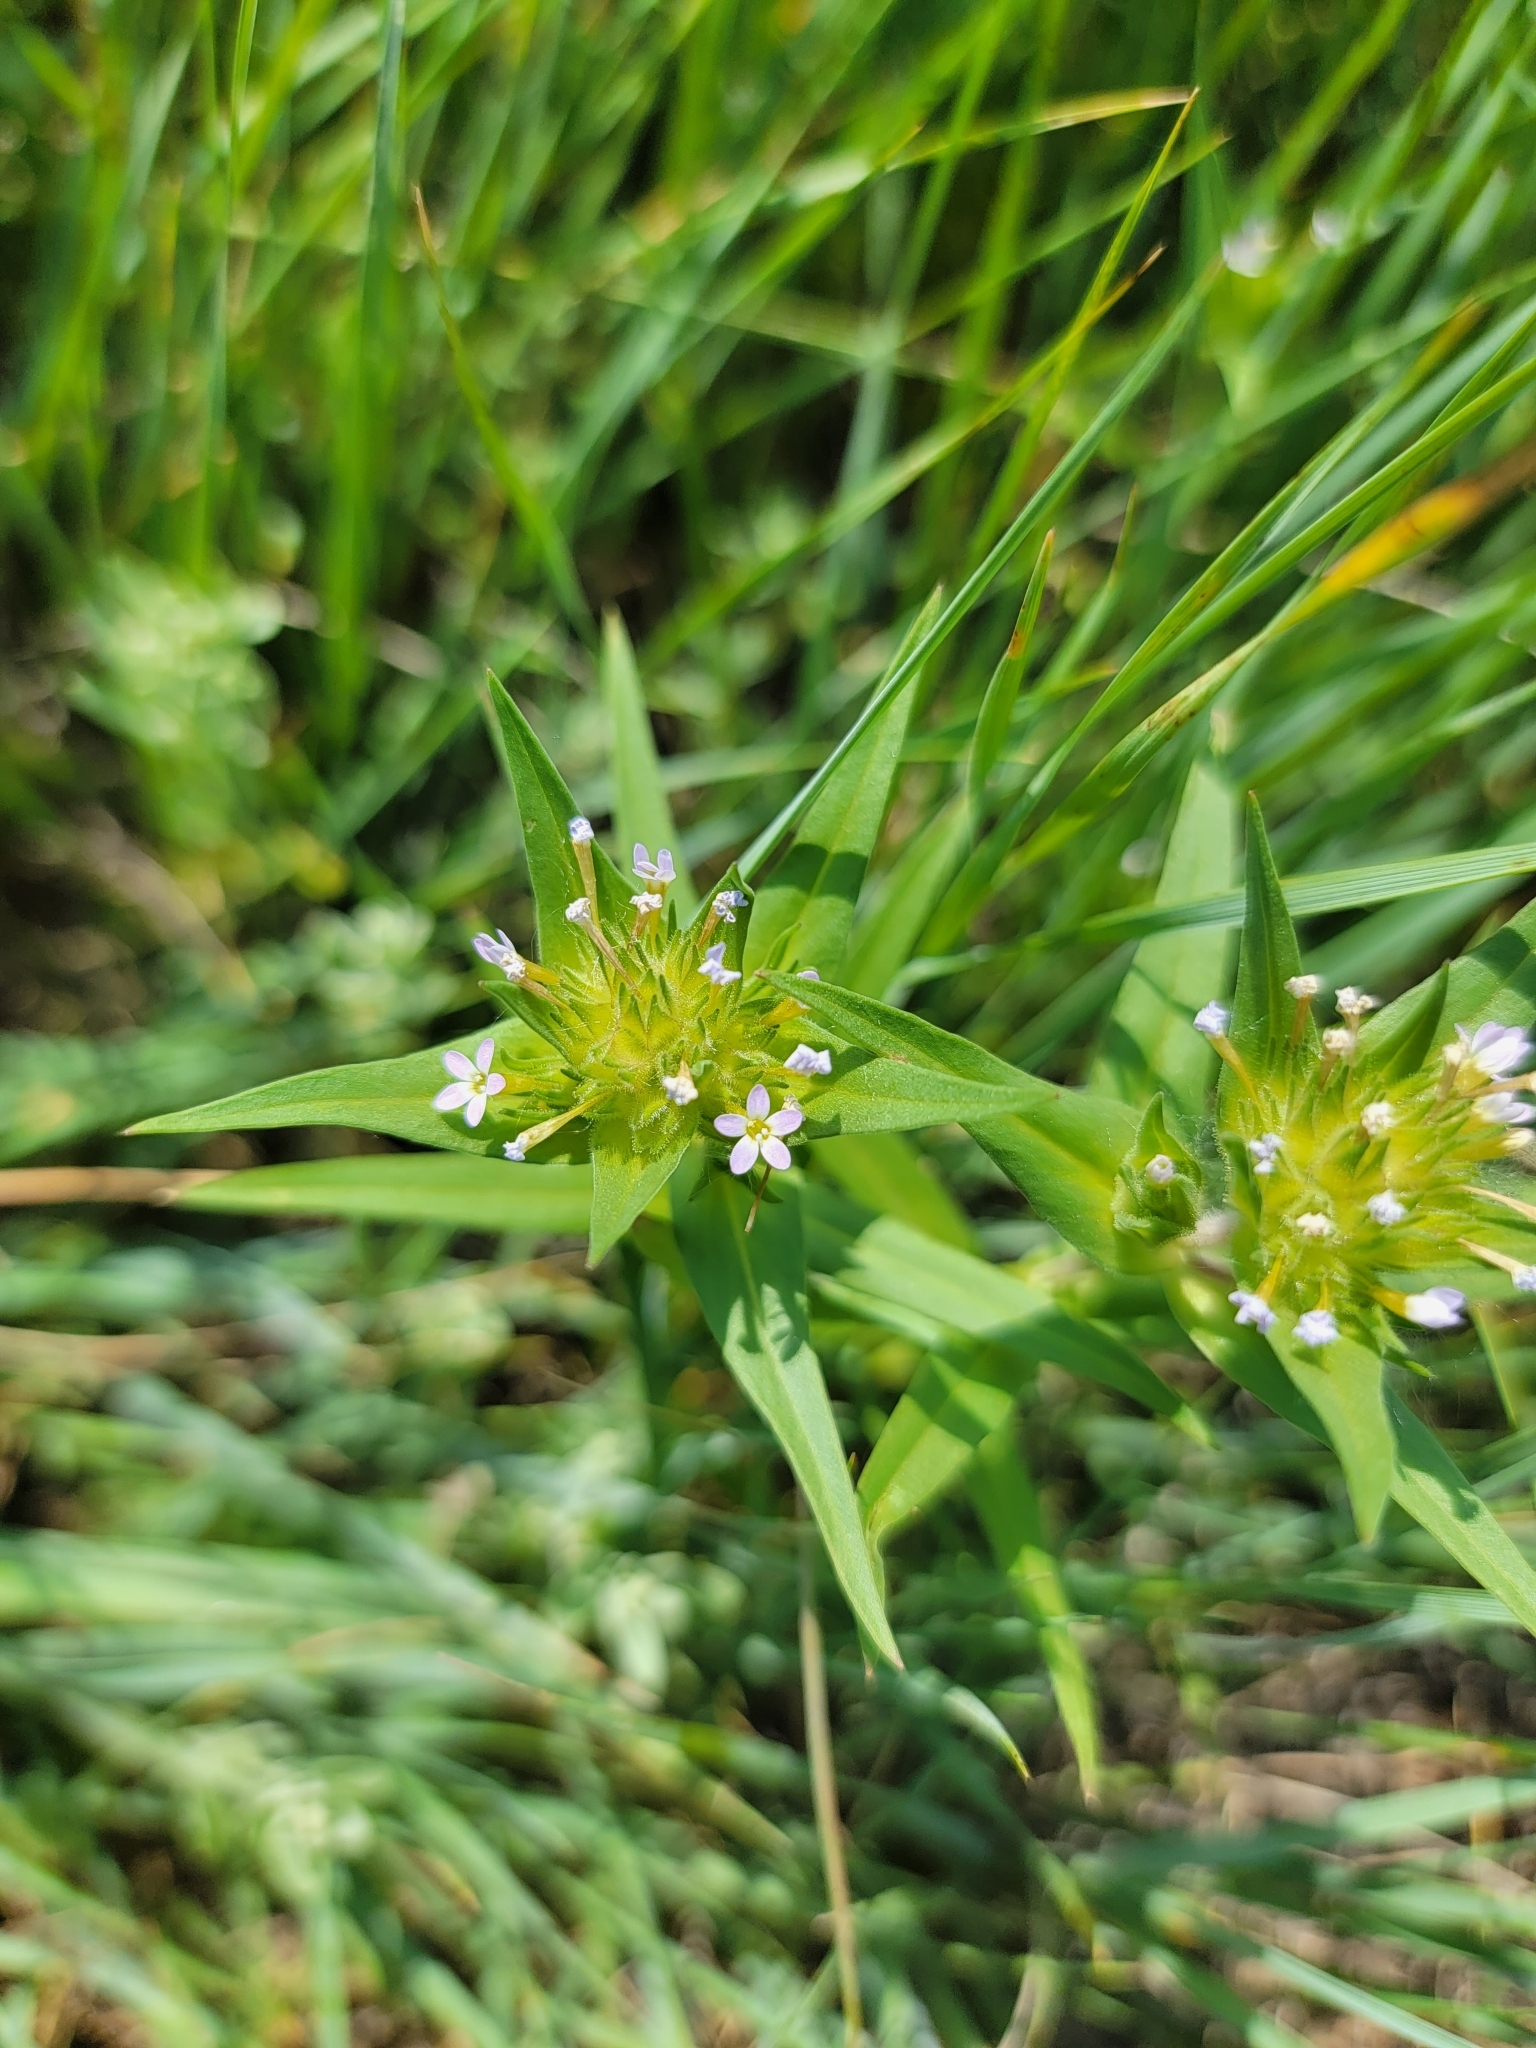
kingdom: Plantae
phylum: Tracheophyta
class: Magnoliopsida
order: Ericales
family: Polemoniaceae
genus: Collomia
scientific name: Collomia linearis
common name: Tiny trumpet
